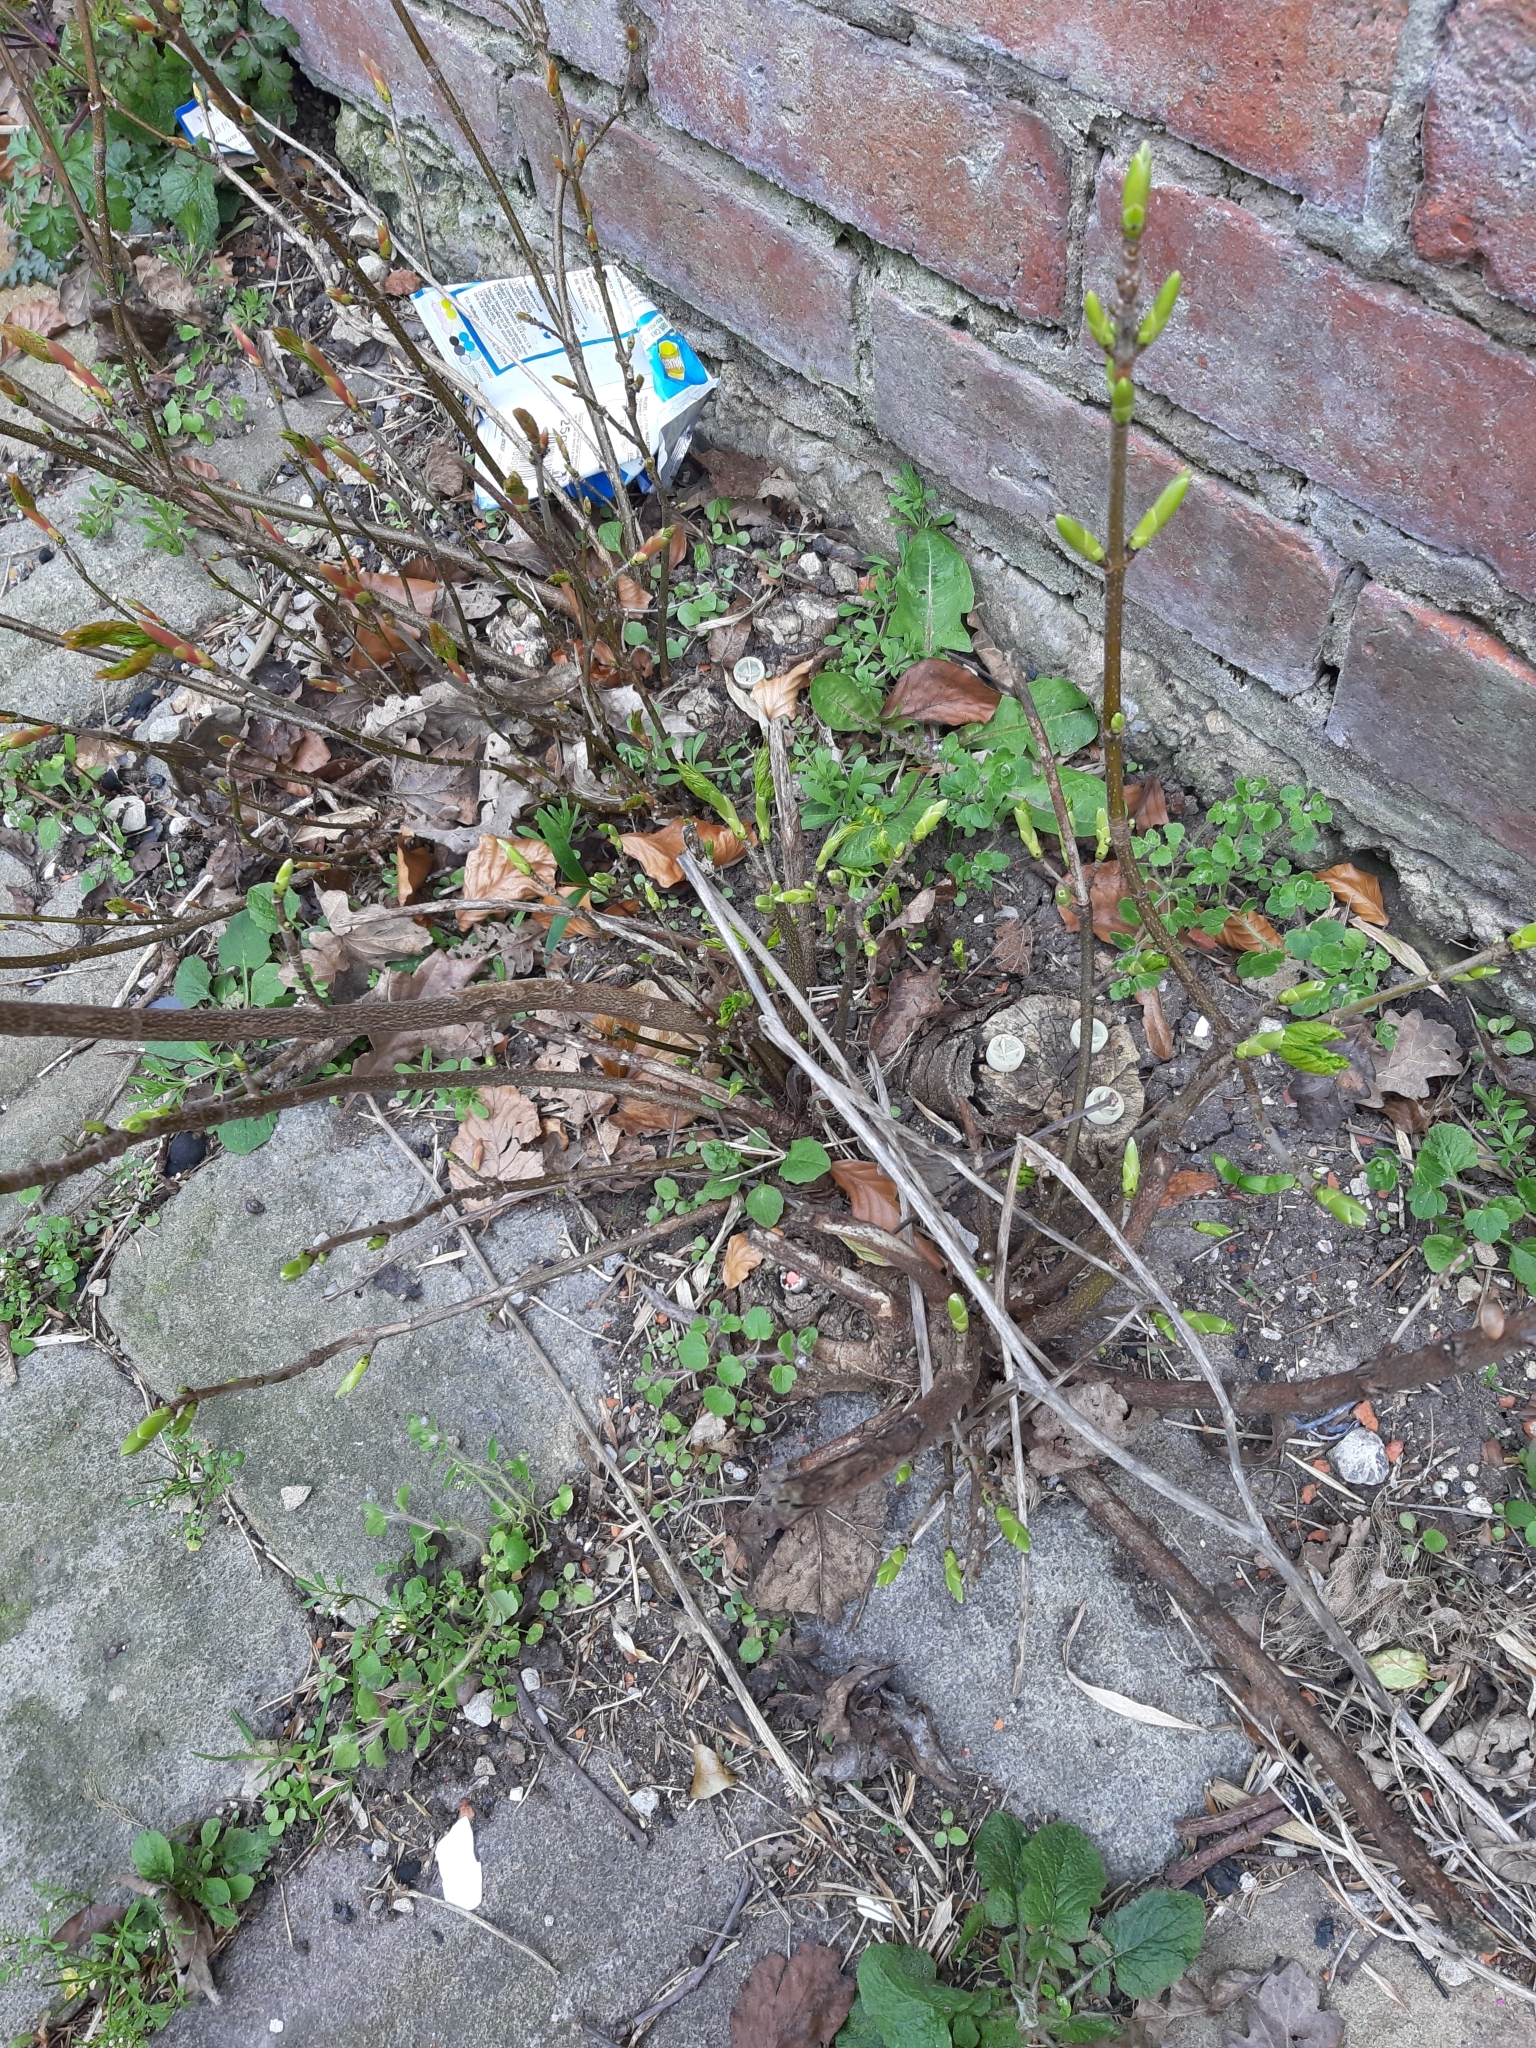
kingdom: Plantae
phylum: Tracheophyta
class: Magnoliopsida
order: Sapindales
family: Sapindaceae
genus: Acer
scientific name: Acer pseudoplatanus
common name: Sycamore
